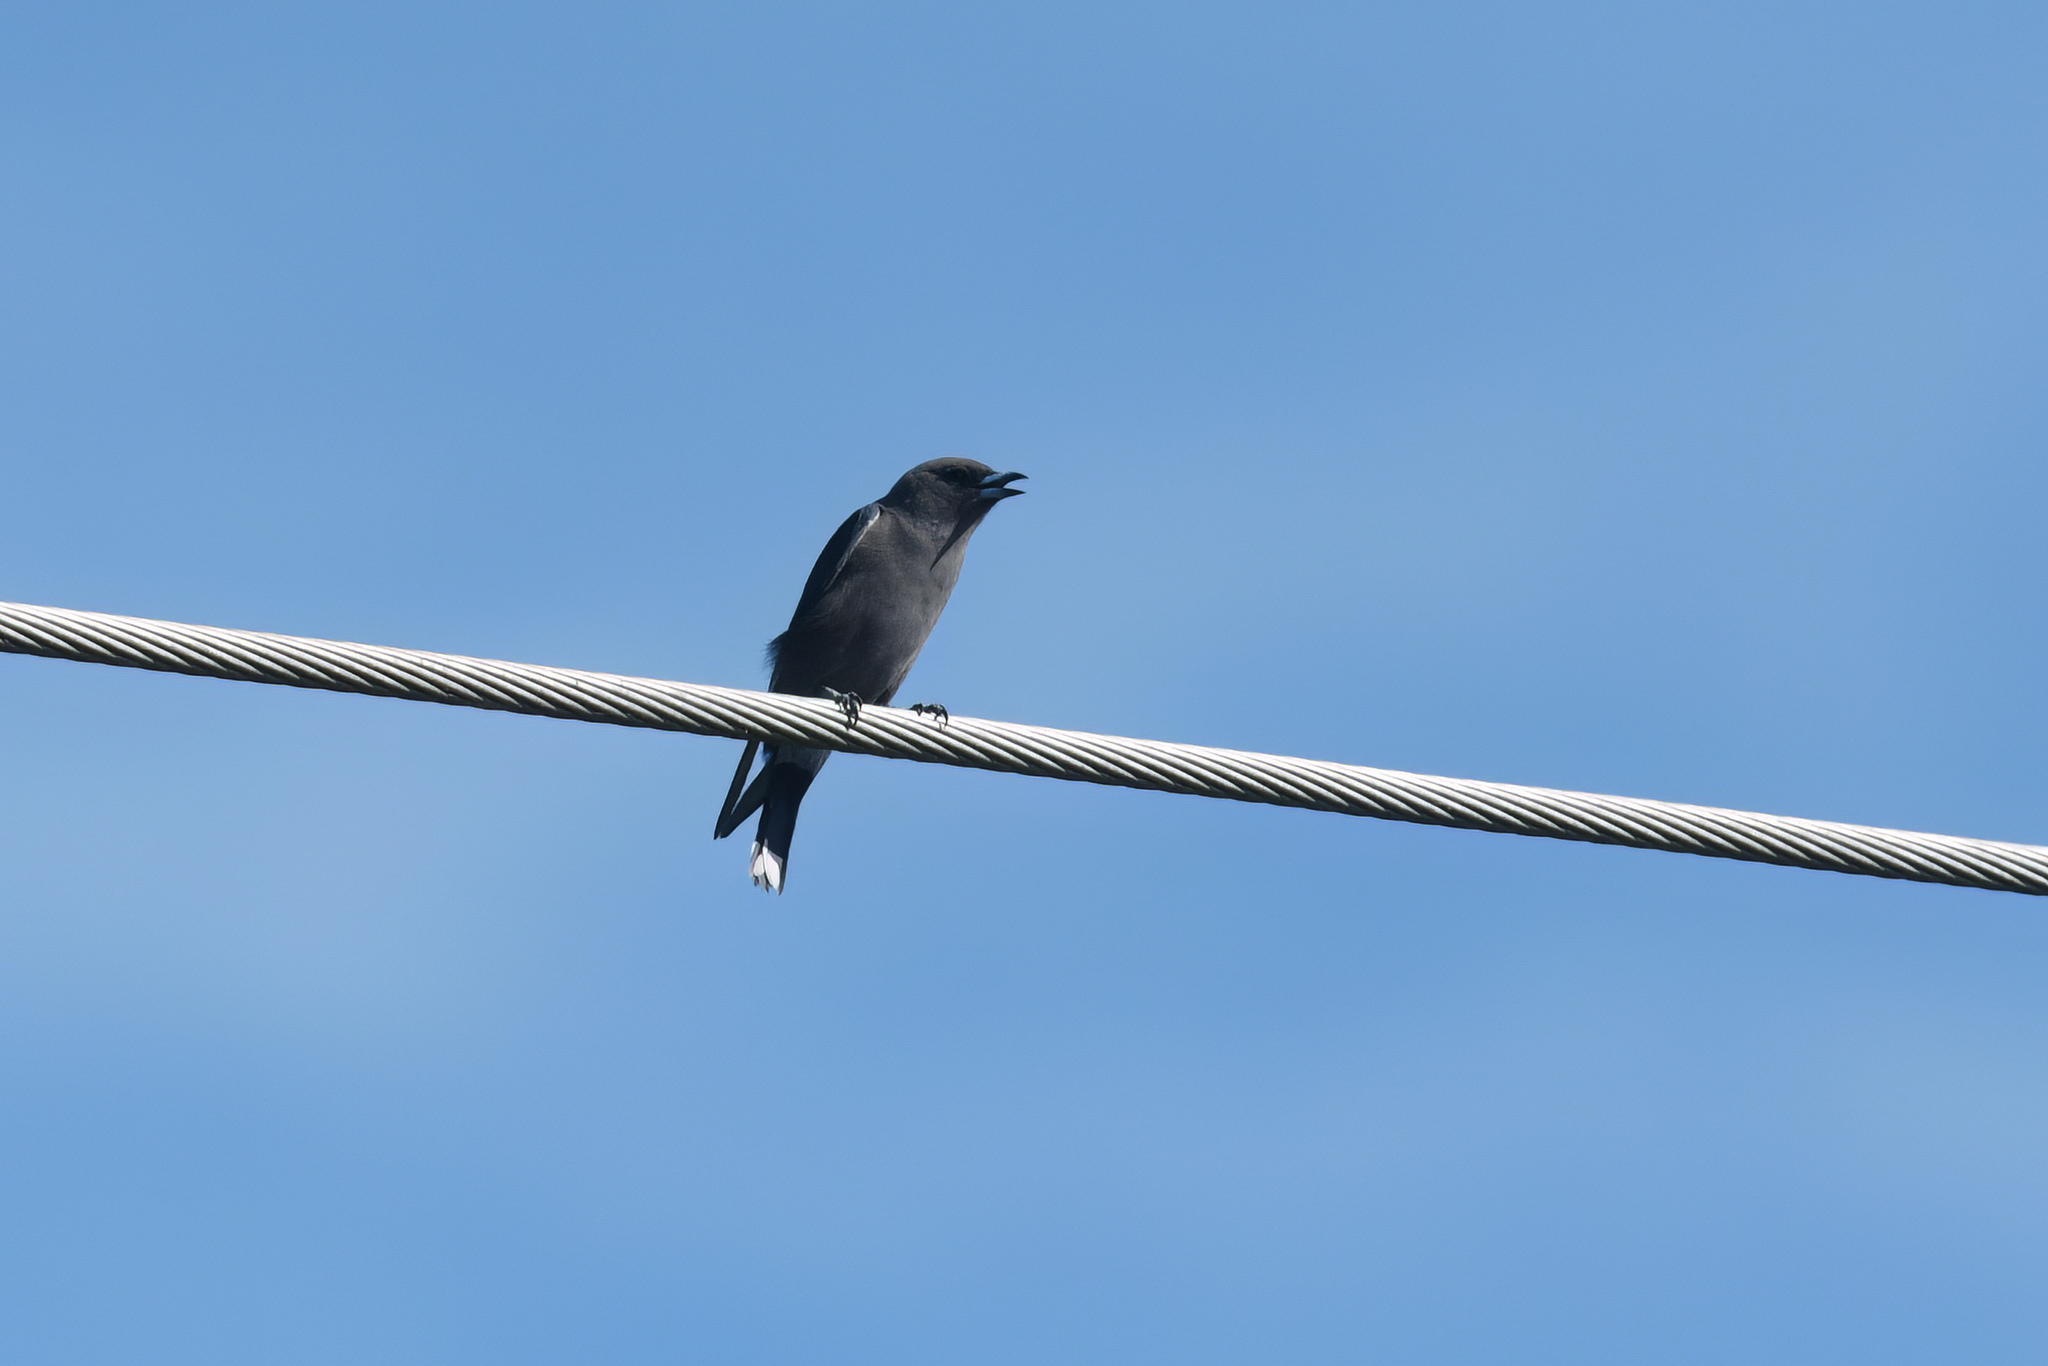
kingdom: Animalia
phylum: Chordata
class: Aves
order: Passeriformes
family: Artamidae
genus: Artamus
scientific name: Artamus cyanopterus
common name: Dusky woodswallow
